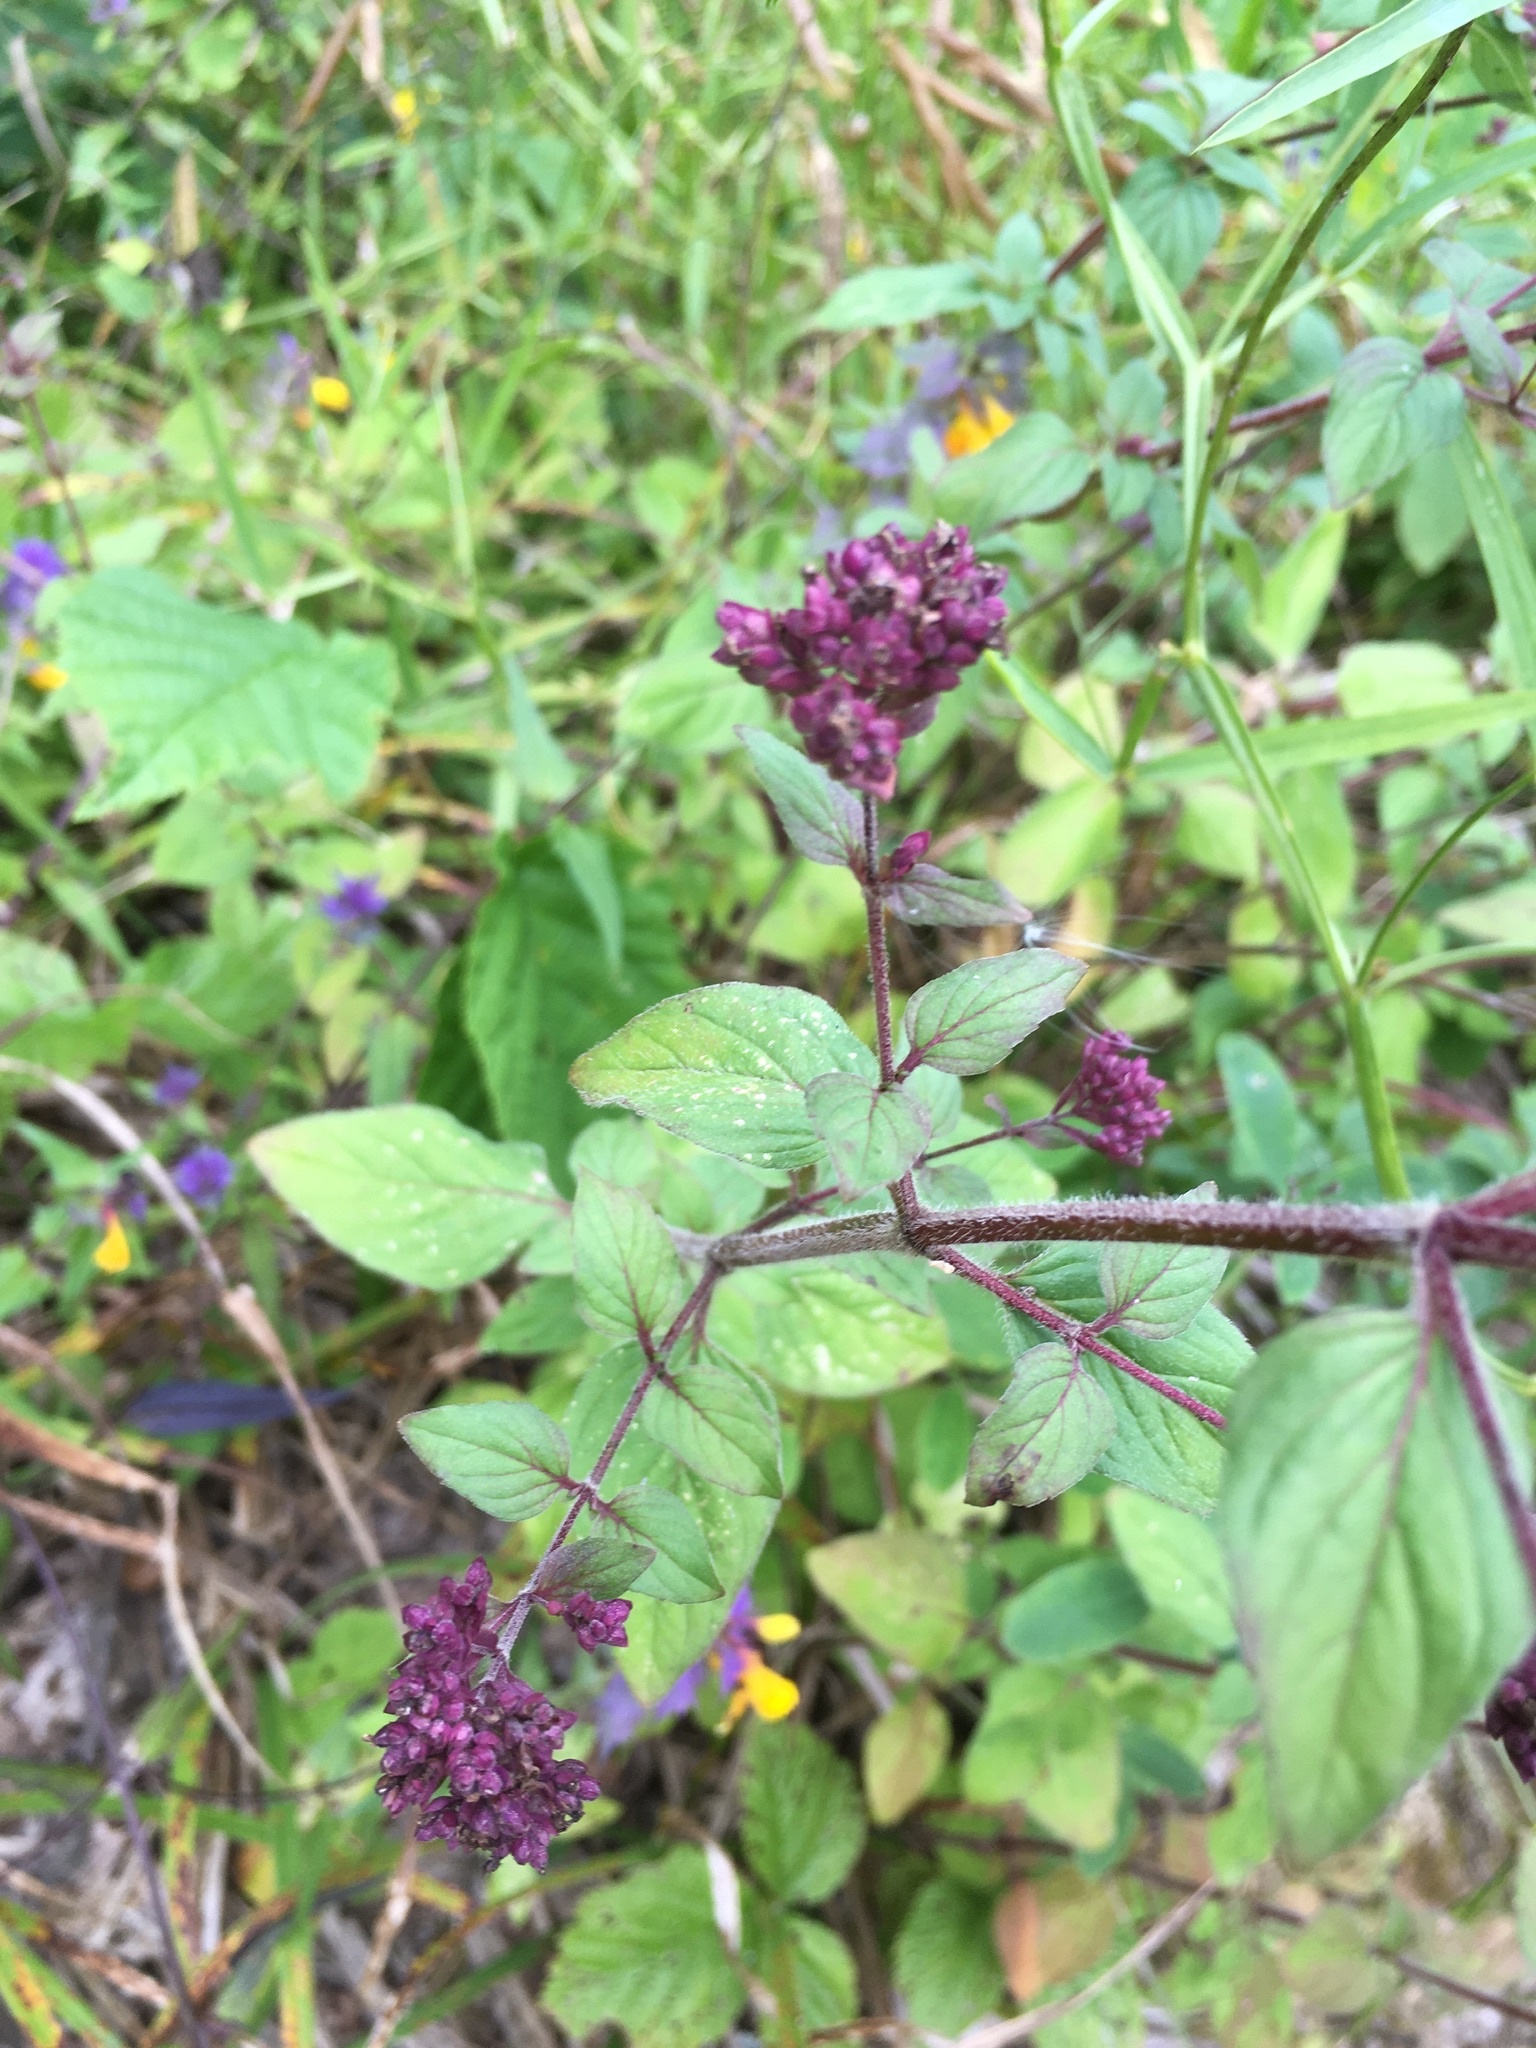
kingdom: Plantae
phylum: Tracheophyta
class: Magnoliopsida
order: Lamiales
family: Lamiaceae
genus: Origanum
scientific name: Origanum vulgare
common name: Wild marjoram
